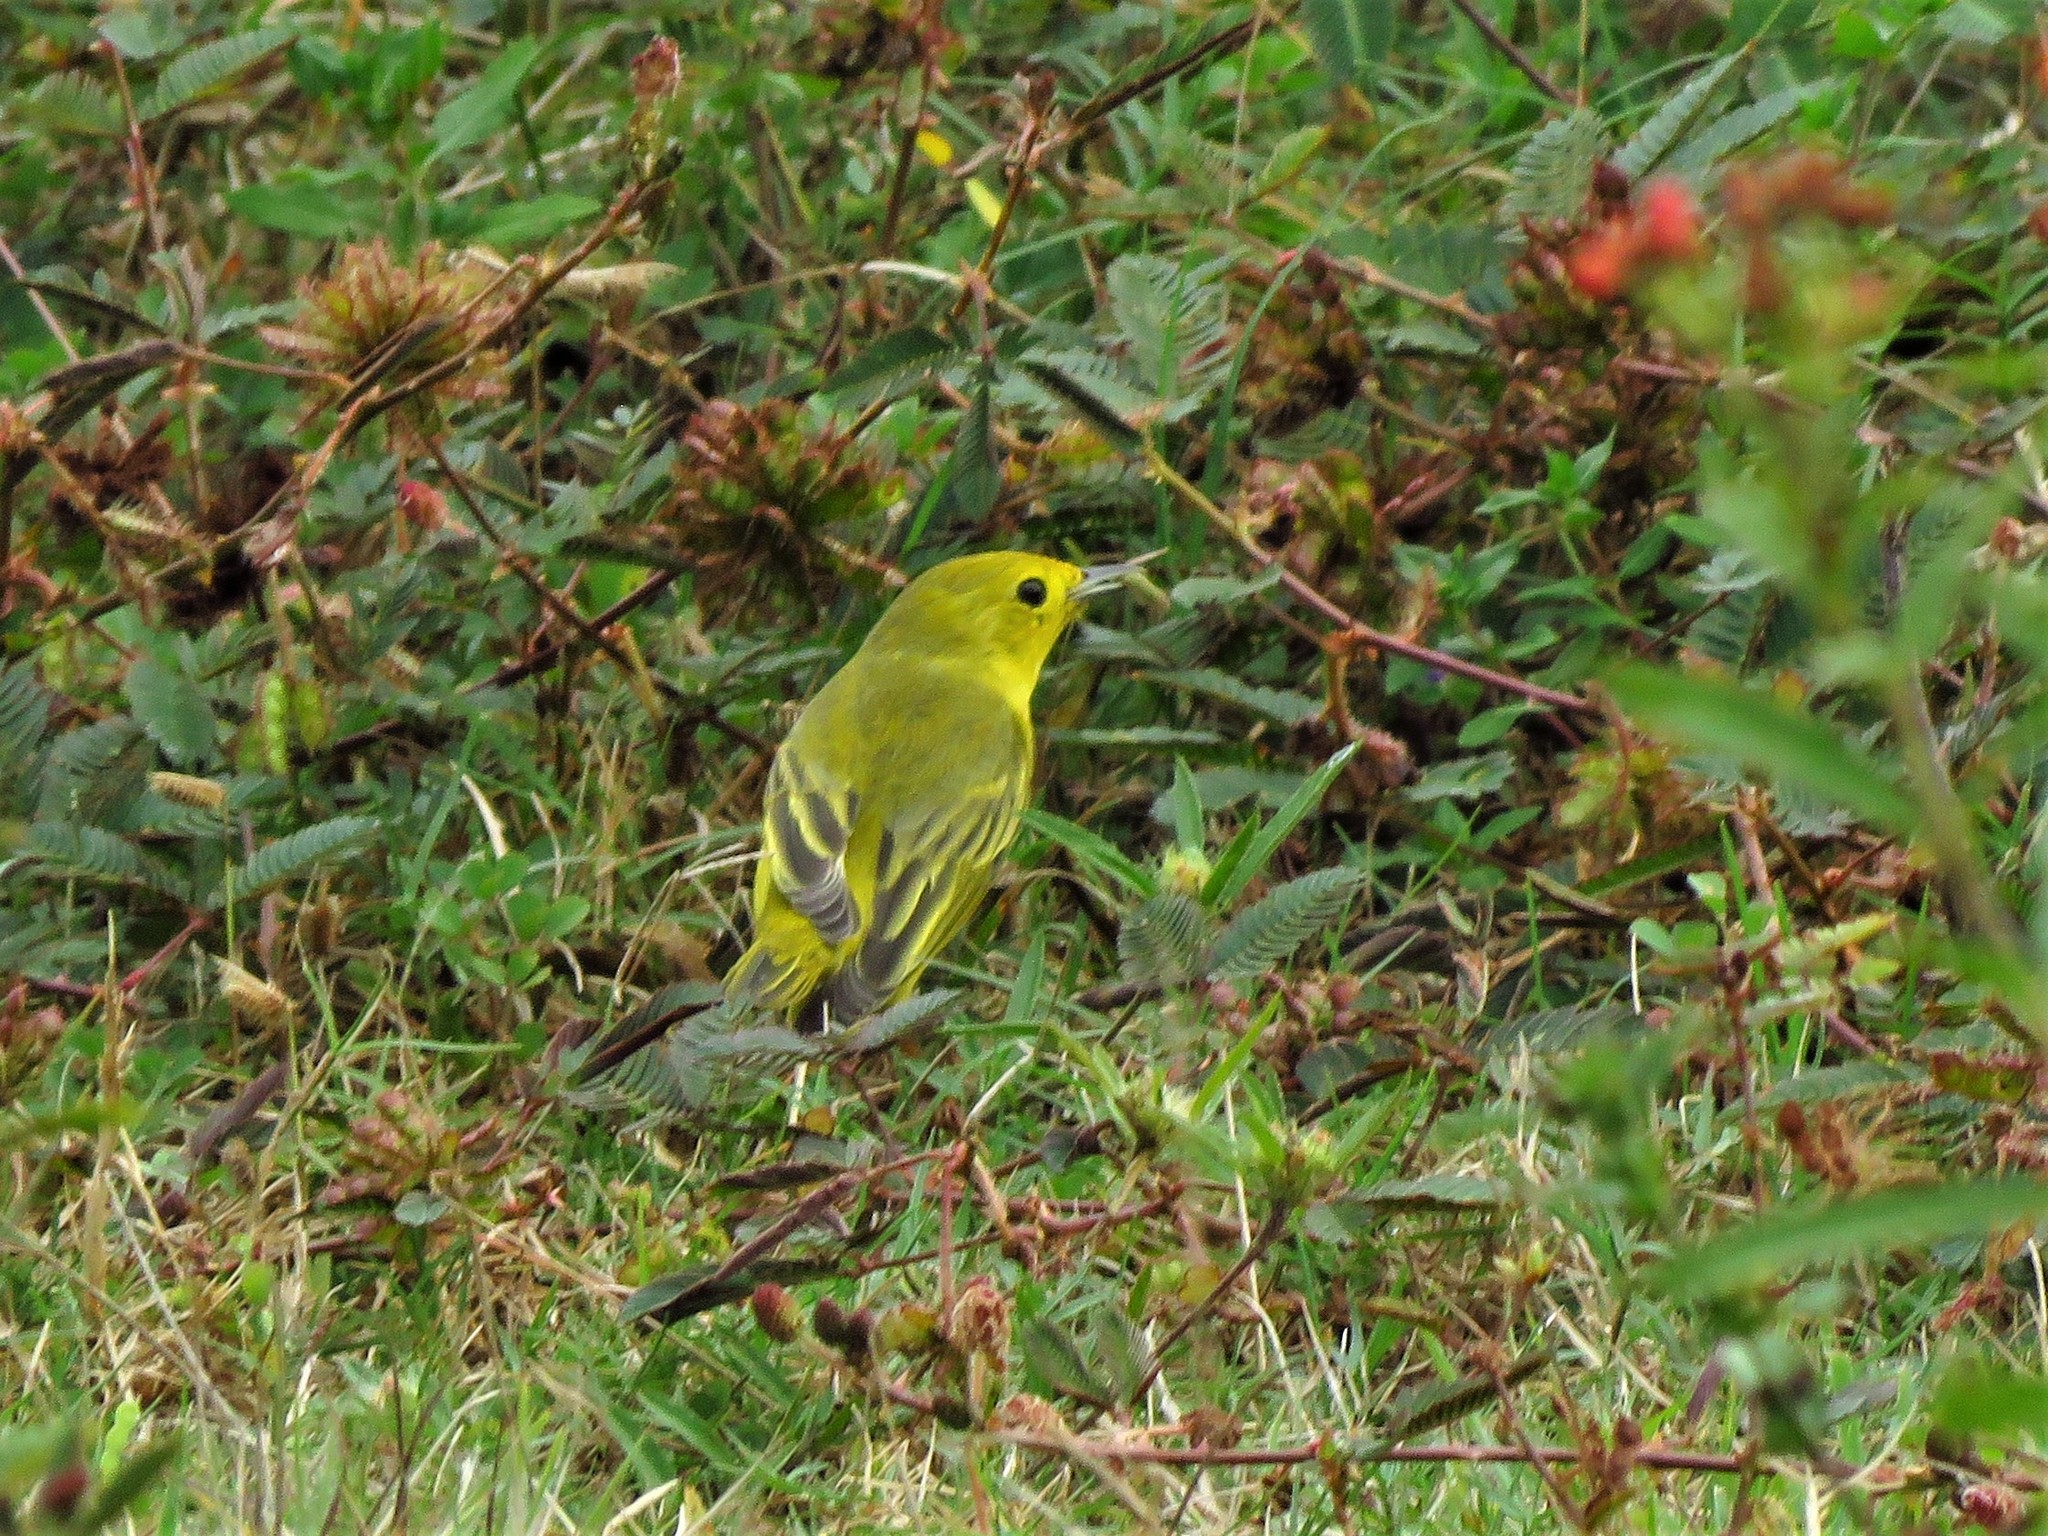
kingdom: Animalia
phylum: Chordata
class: Aves
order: Passeriformes
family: Parulidae
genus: Setophaga
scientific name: Setophaga petechia
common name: Yellow warbler
